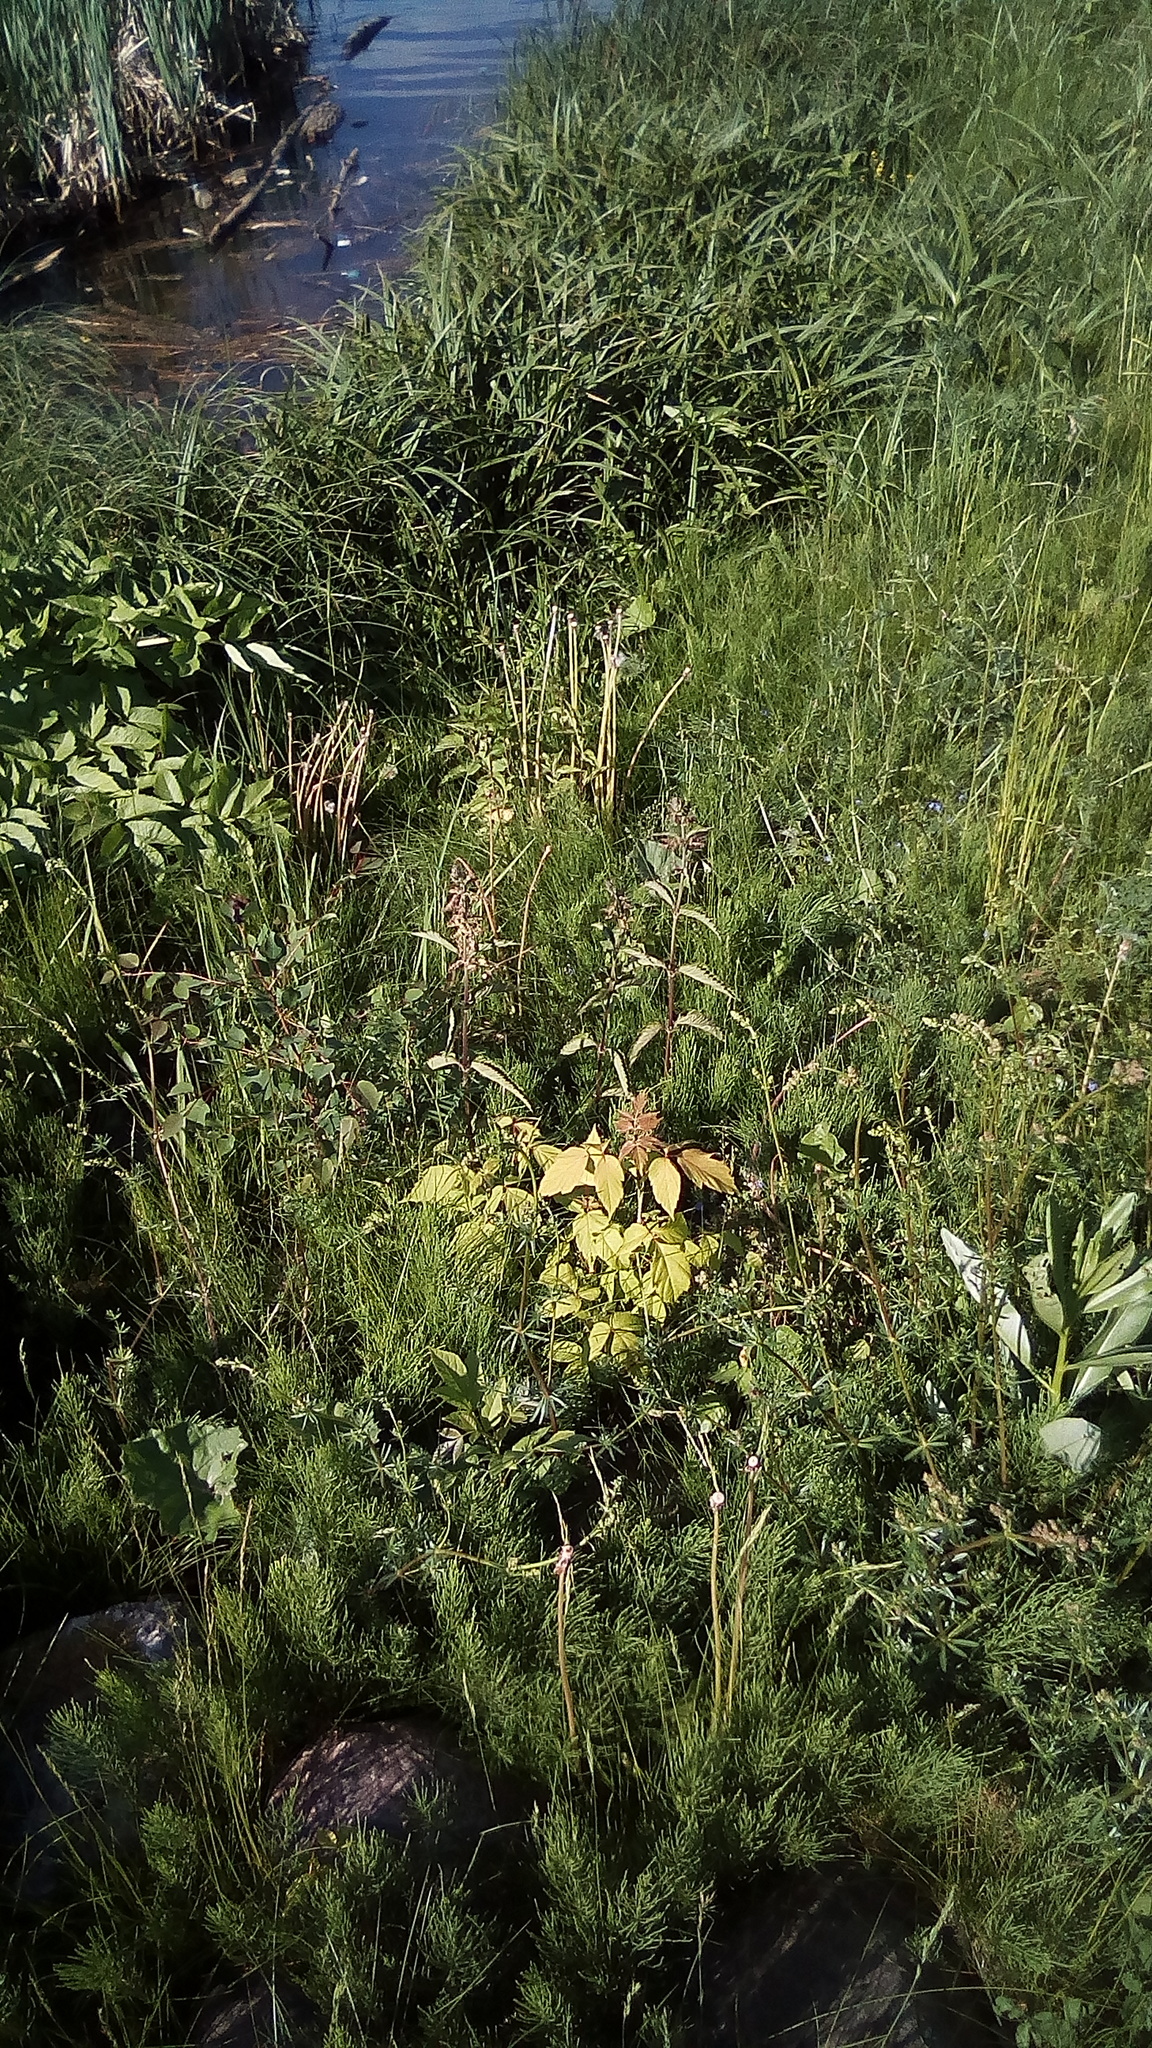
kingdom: Plantae
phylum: Tracheophyta
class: Magnoliopsida
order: Sapindales
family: Sapindaceae
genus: Acer
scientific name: Acer negundo
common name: Ashleaf maple
